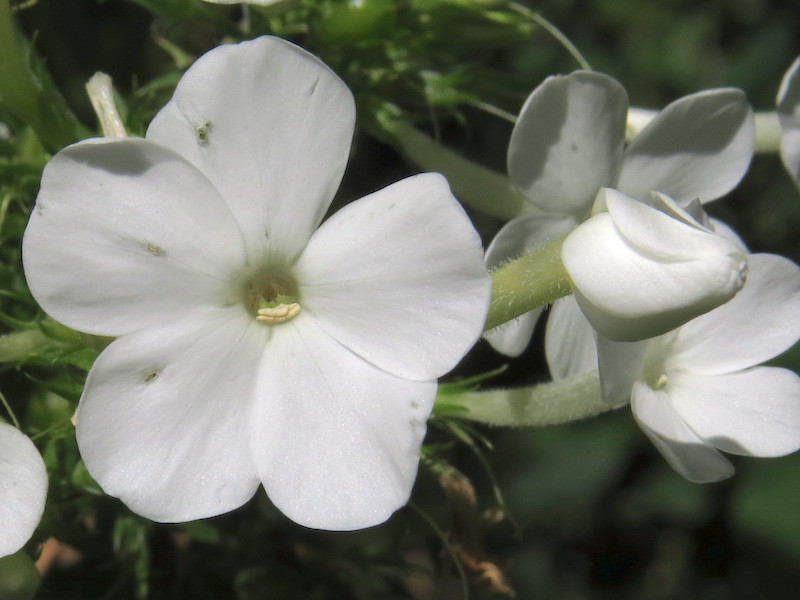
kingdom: Plantae
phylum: Tracheophyta
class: Magnoliopsida
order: Ericales
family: Polemoniaceae
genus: Phlox
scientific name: Phlox paniculata
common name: Fall phlox
